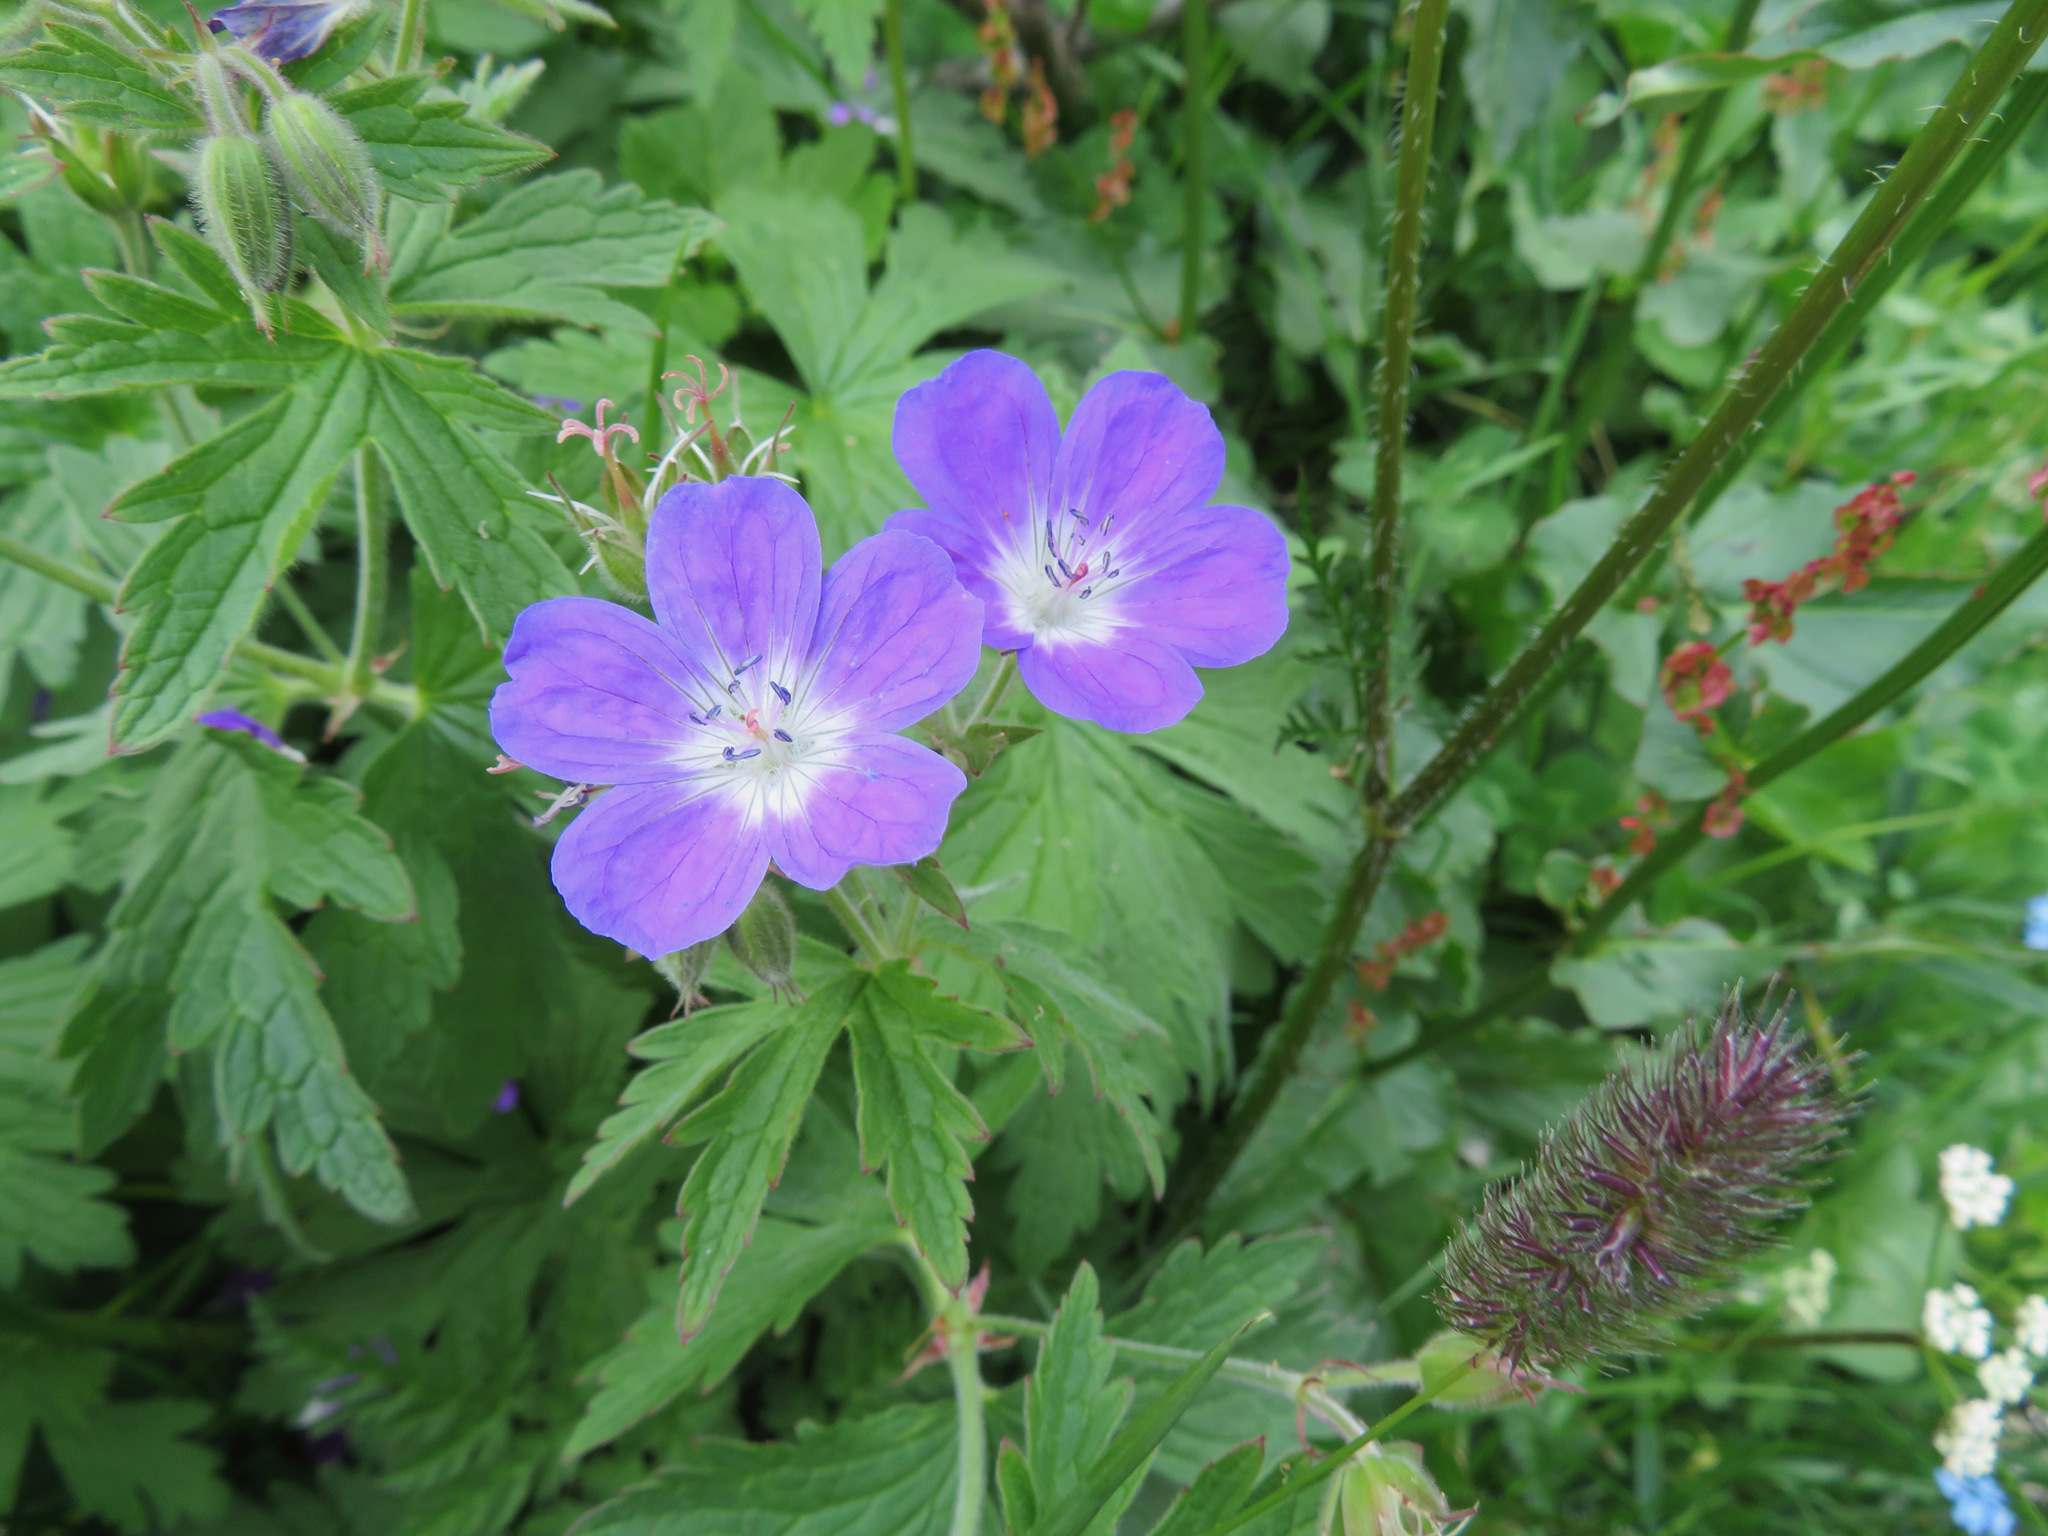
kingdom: Plantae
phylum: Tracheophyta
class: Magnoliopsida
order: Geraniales
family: Geraniaceae
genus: Geranium
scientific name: Geranium sylvaticum
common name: Wood crane's-bill
